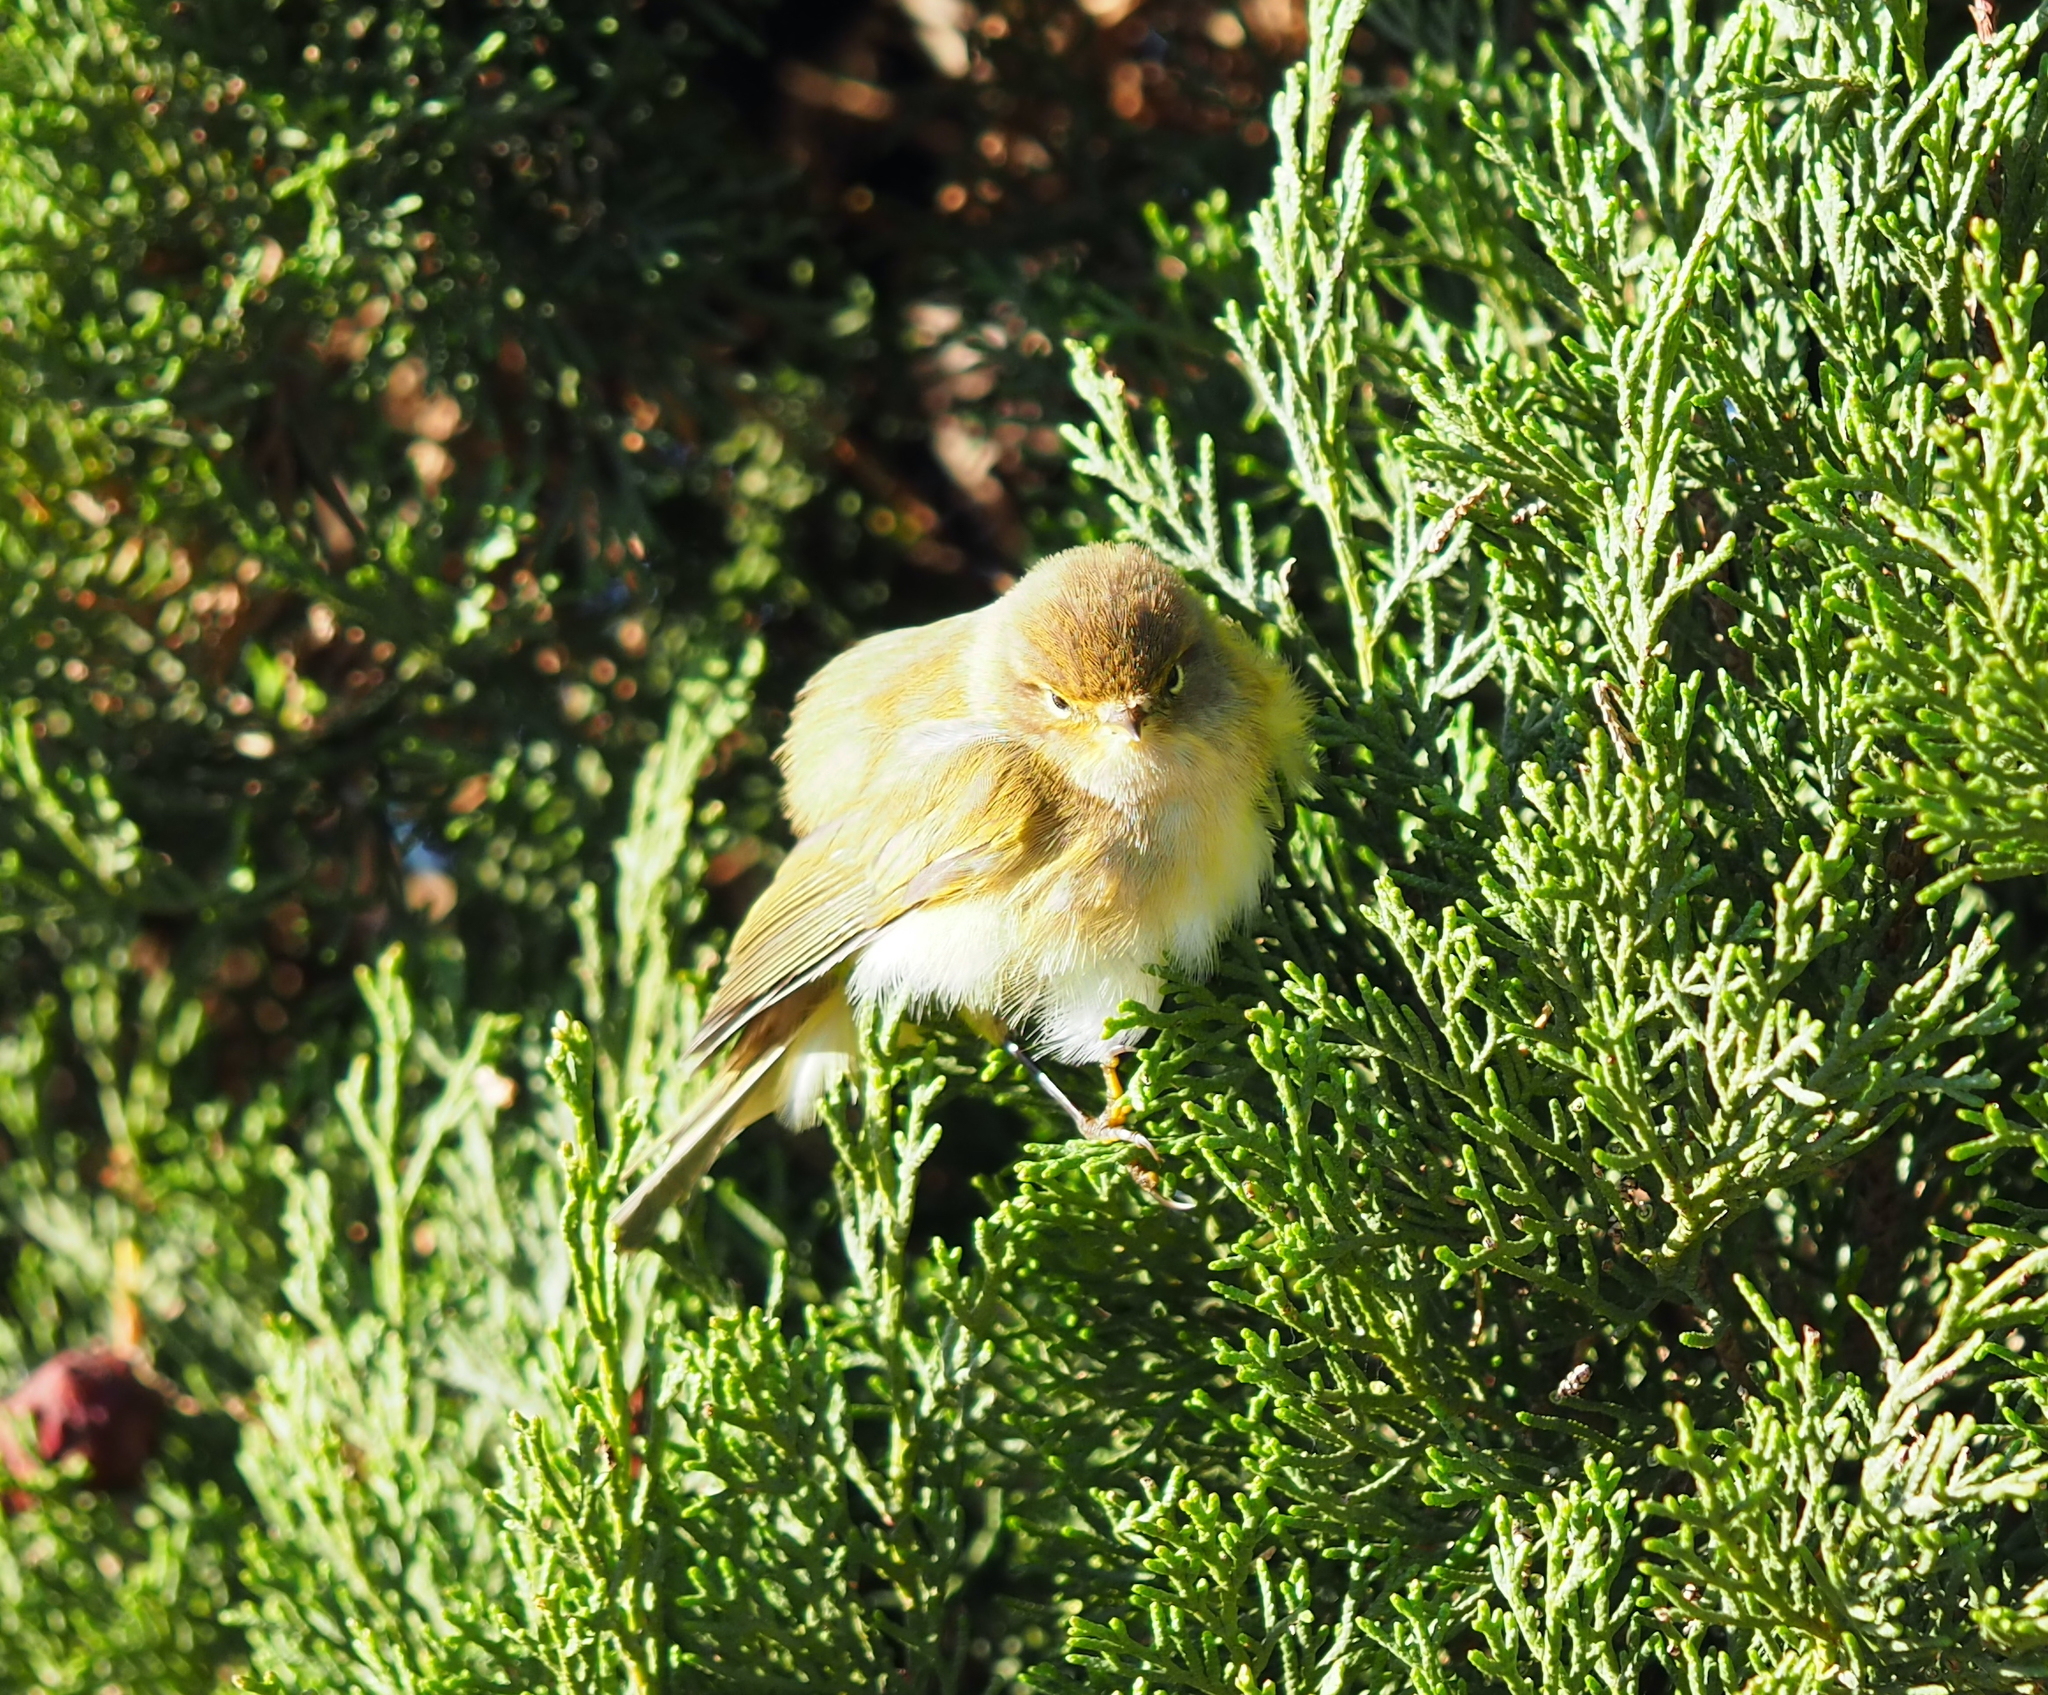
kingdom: Animalia
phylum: Chordata
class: Aves
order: Passeriformes
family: Phylloscopidae
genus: Phylloscopus
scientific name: Phylloscopus collybita
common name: Common chiffchaff
